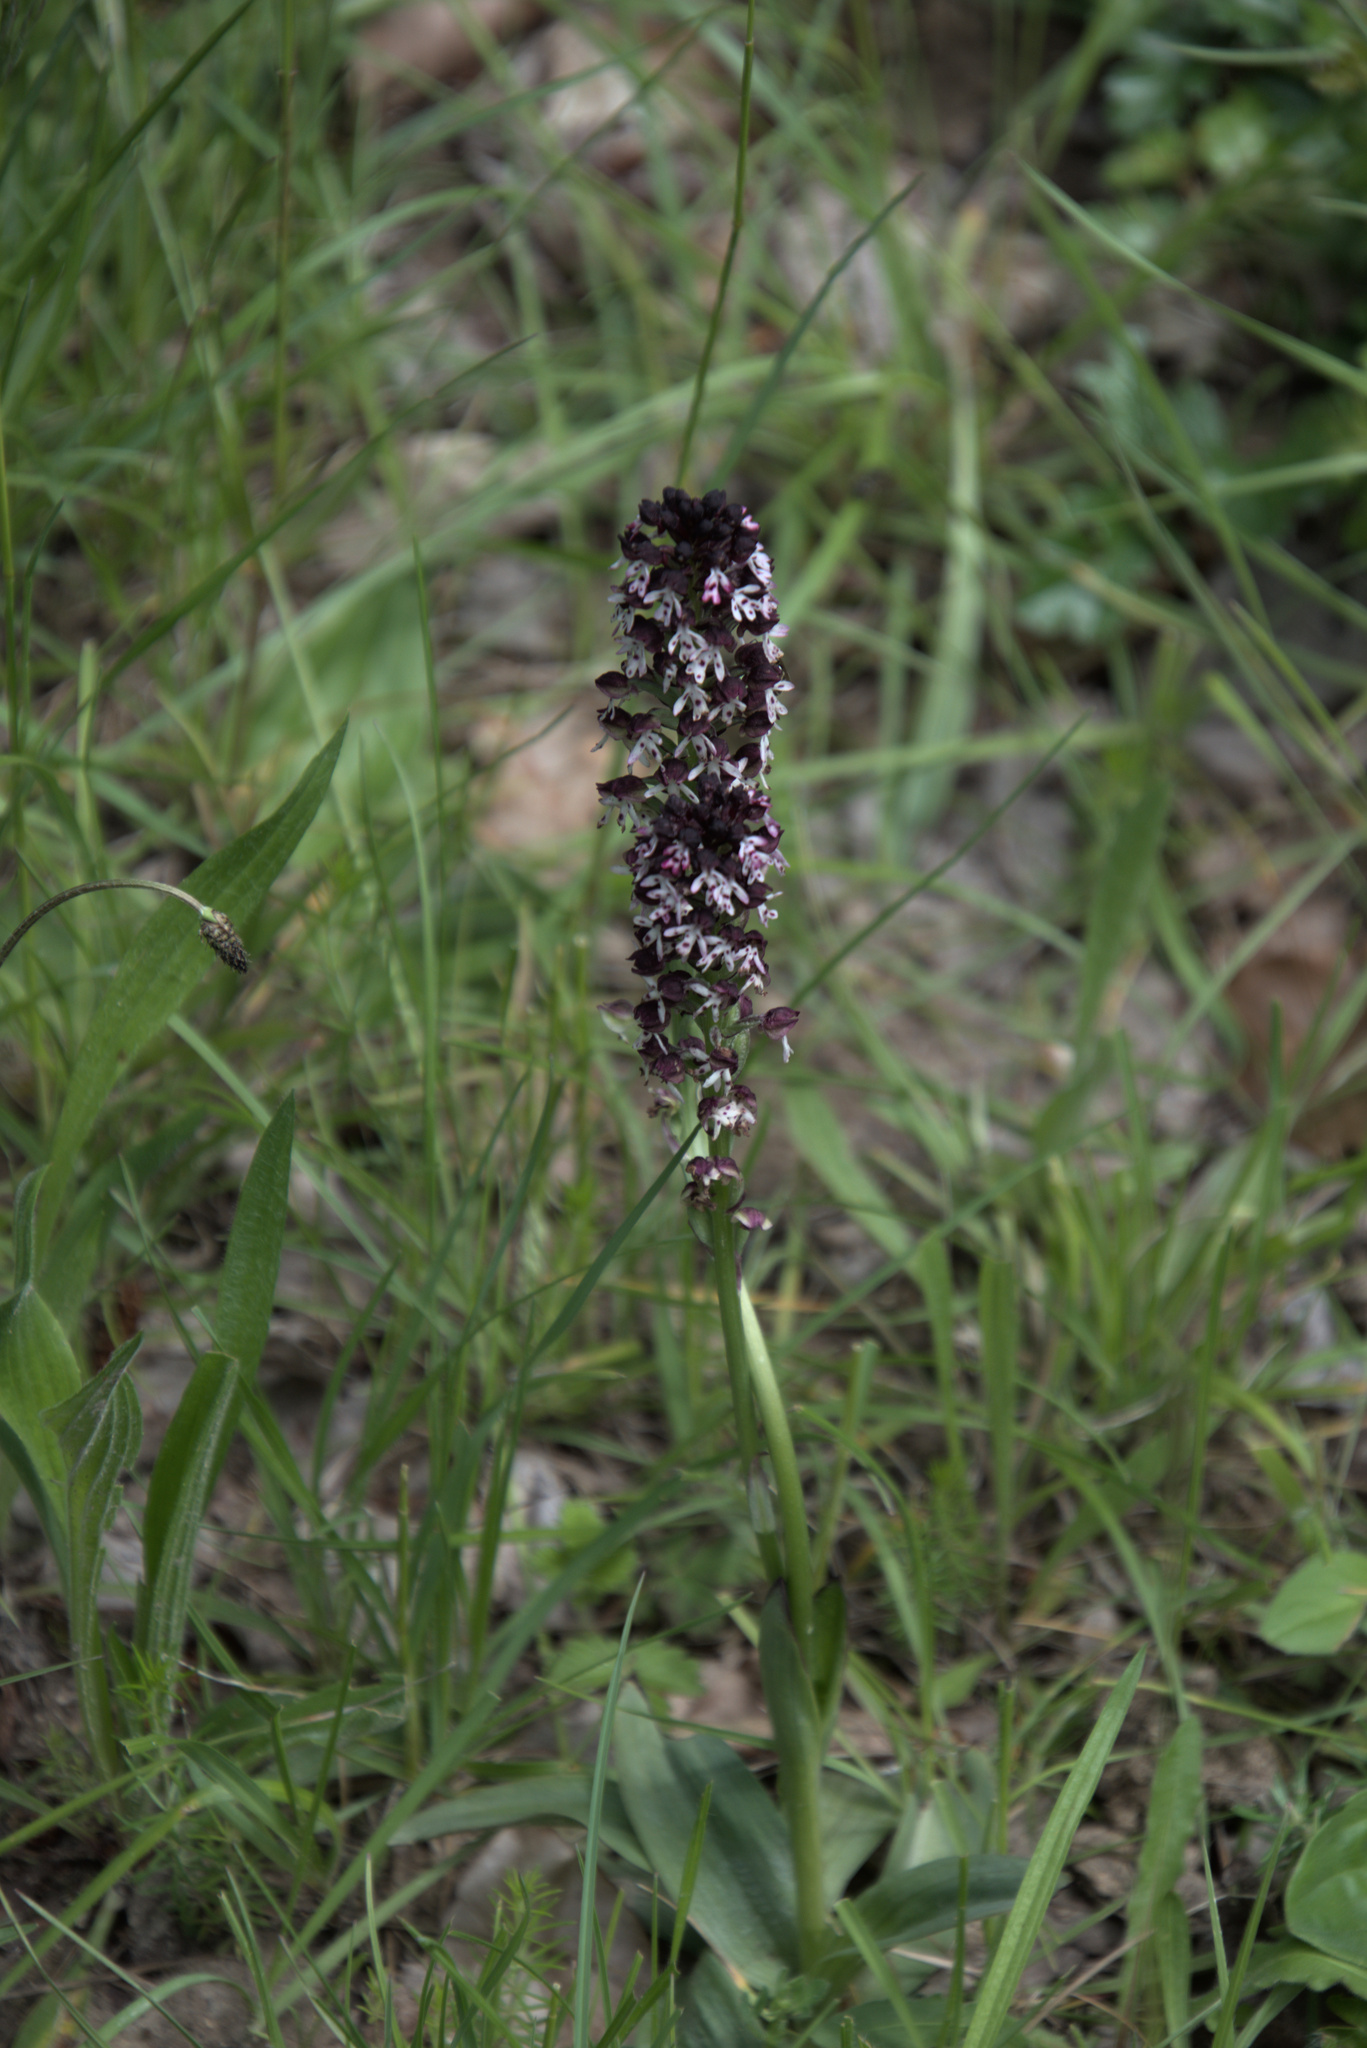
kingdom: Plantae
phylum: Tracheophyta
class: Liliopsida
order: Asparagales
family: Orchidaceae
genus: Neotinea
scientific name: Neotinea ustulata
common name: Burnt orchid
